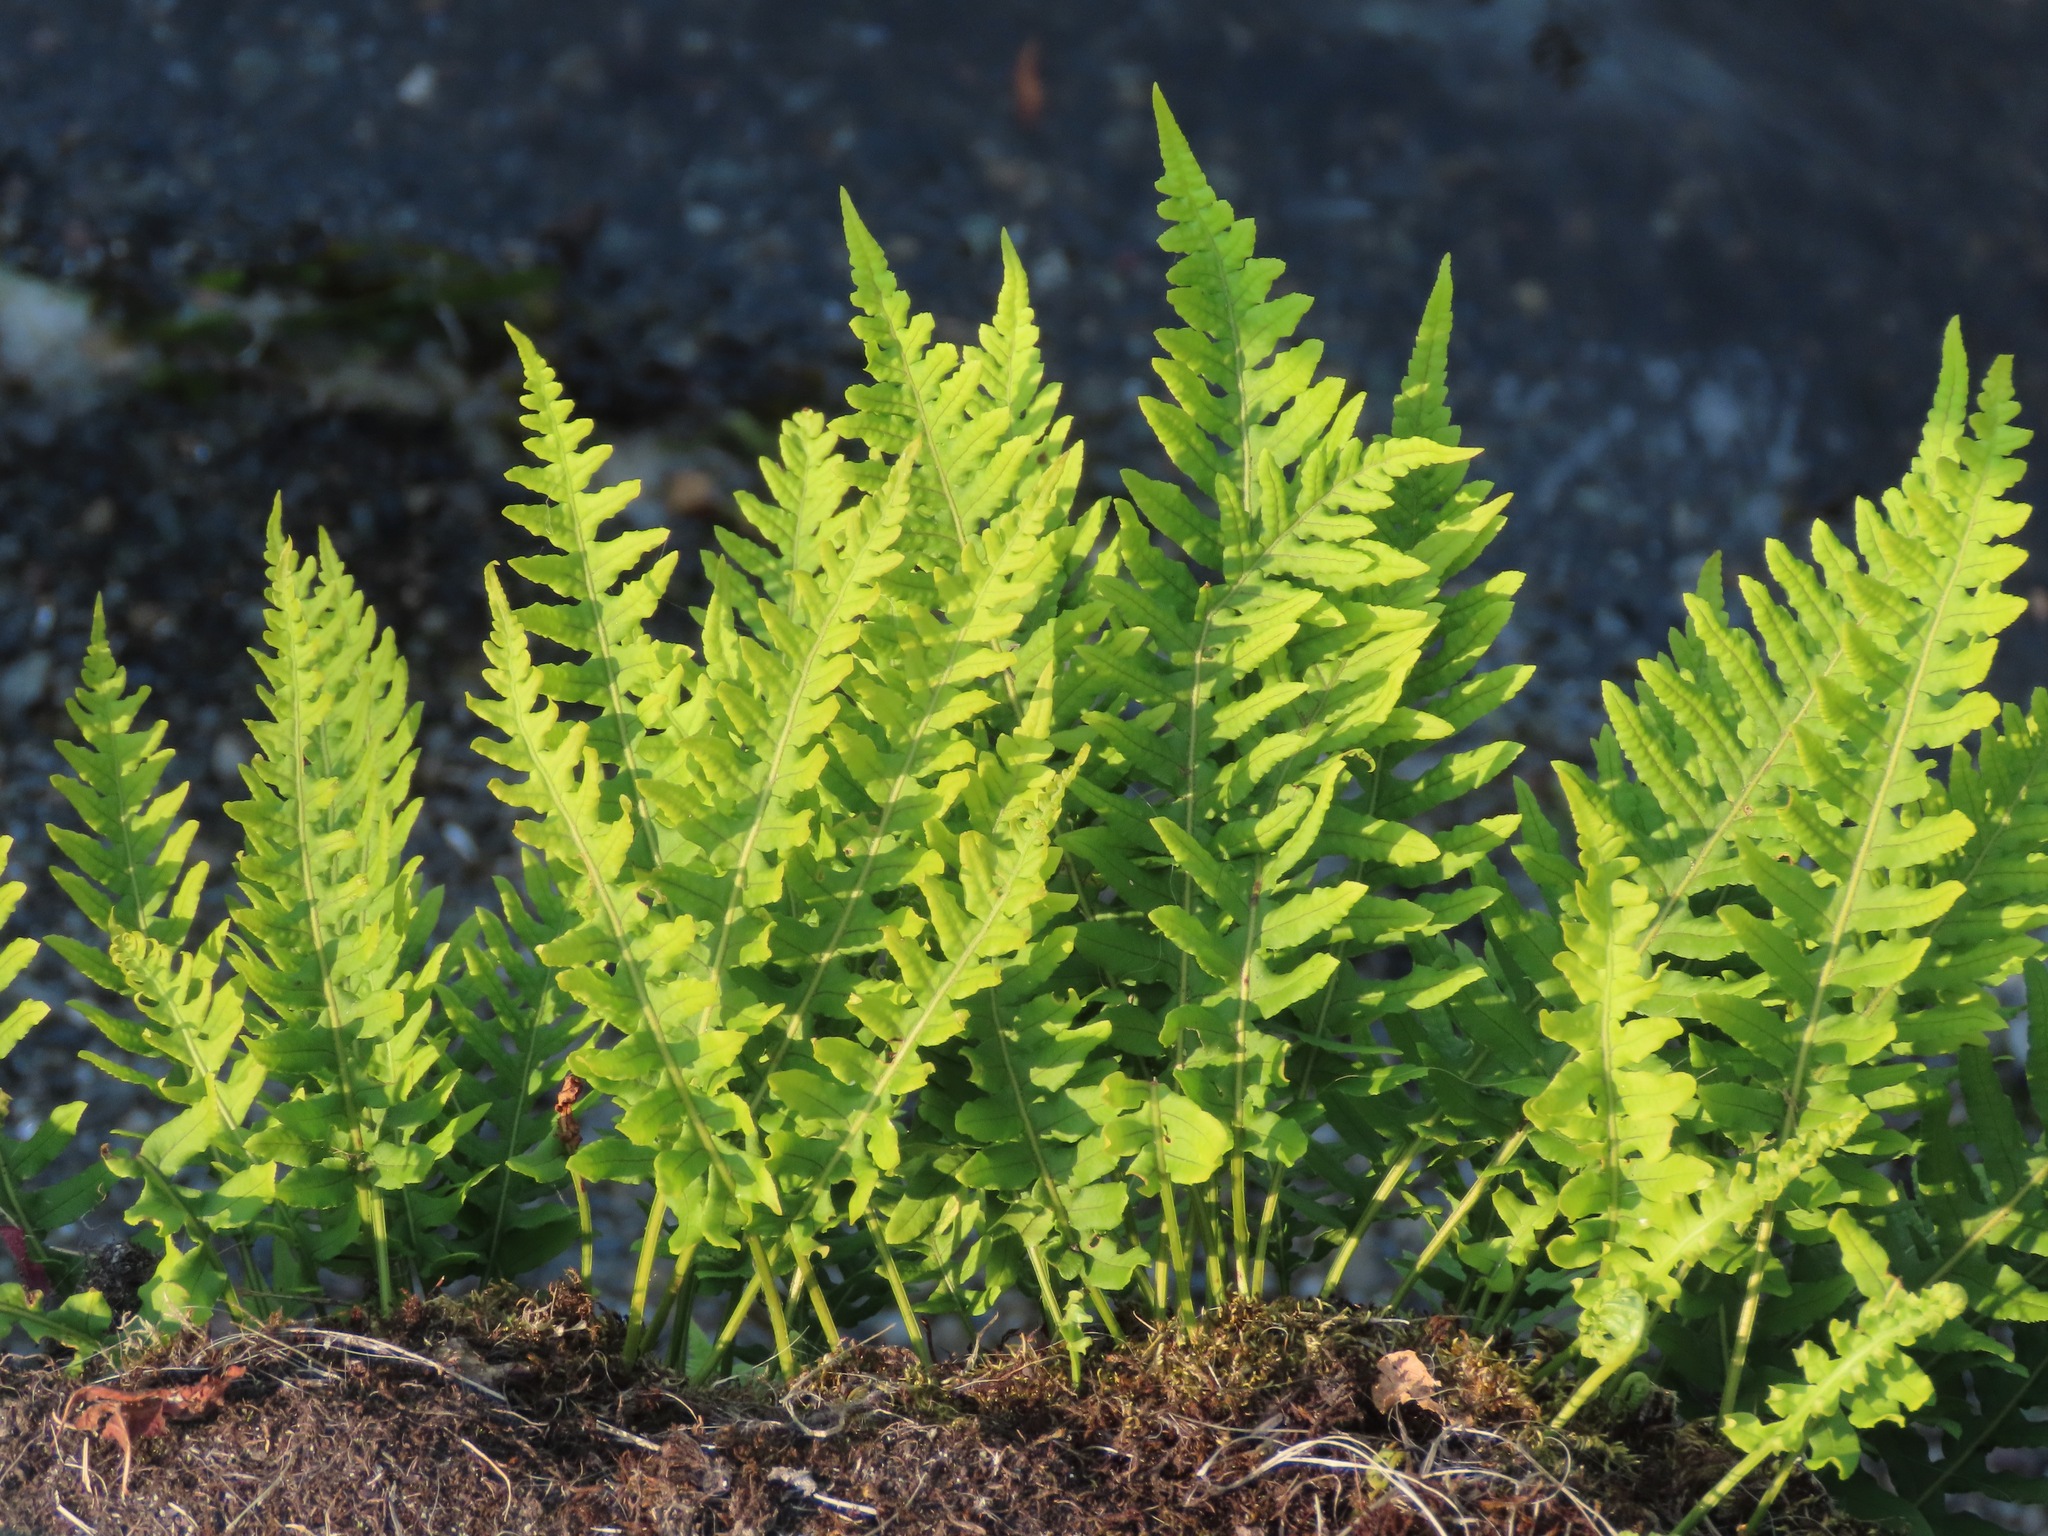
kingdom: Plantae
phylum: Tracheophyta
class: Polypodiopsida
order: Polypodiales
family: Polypodiaceae
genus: Polypodium
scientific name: Polypodium glycyrrhiza
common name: Licorice fern
